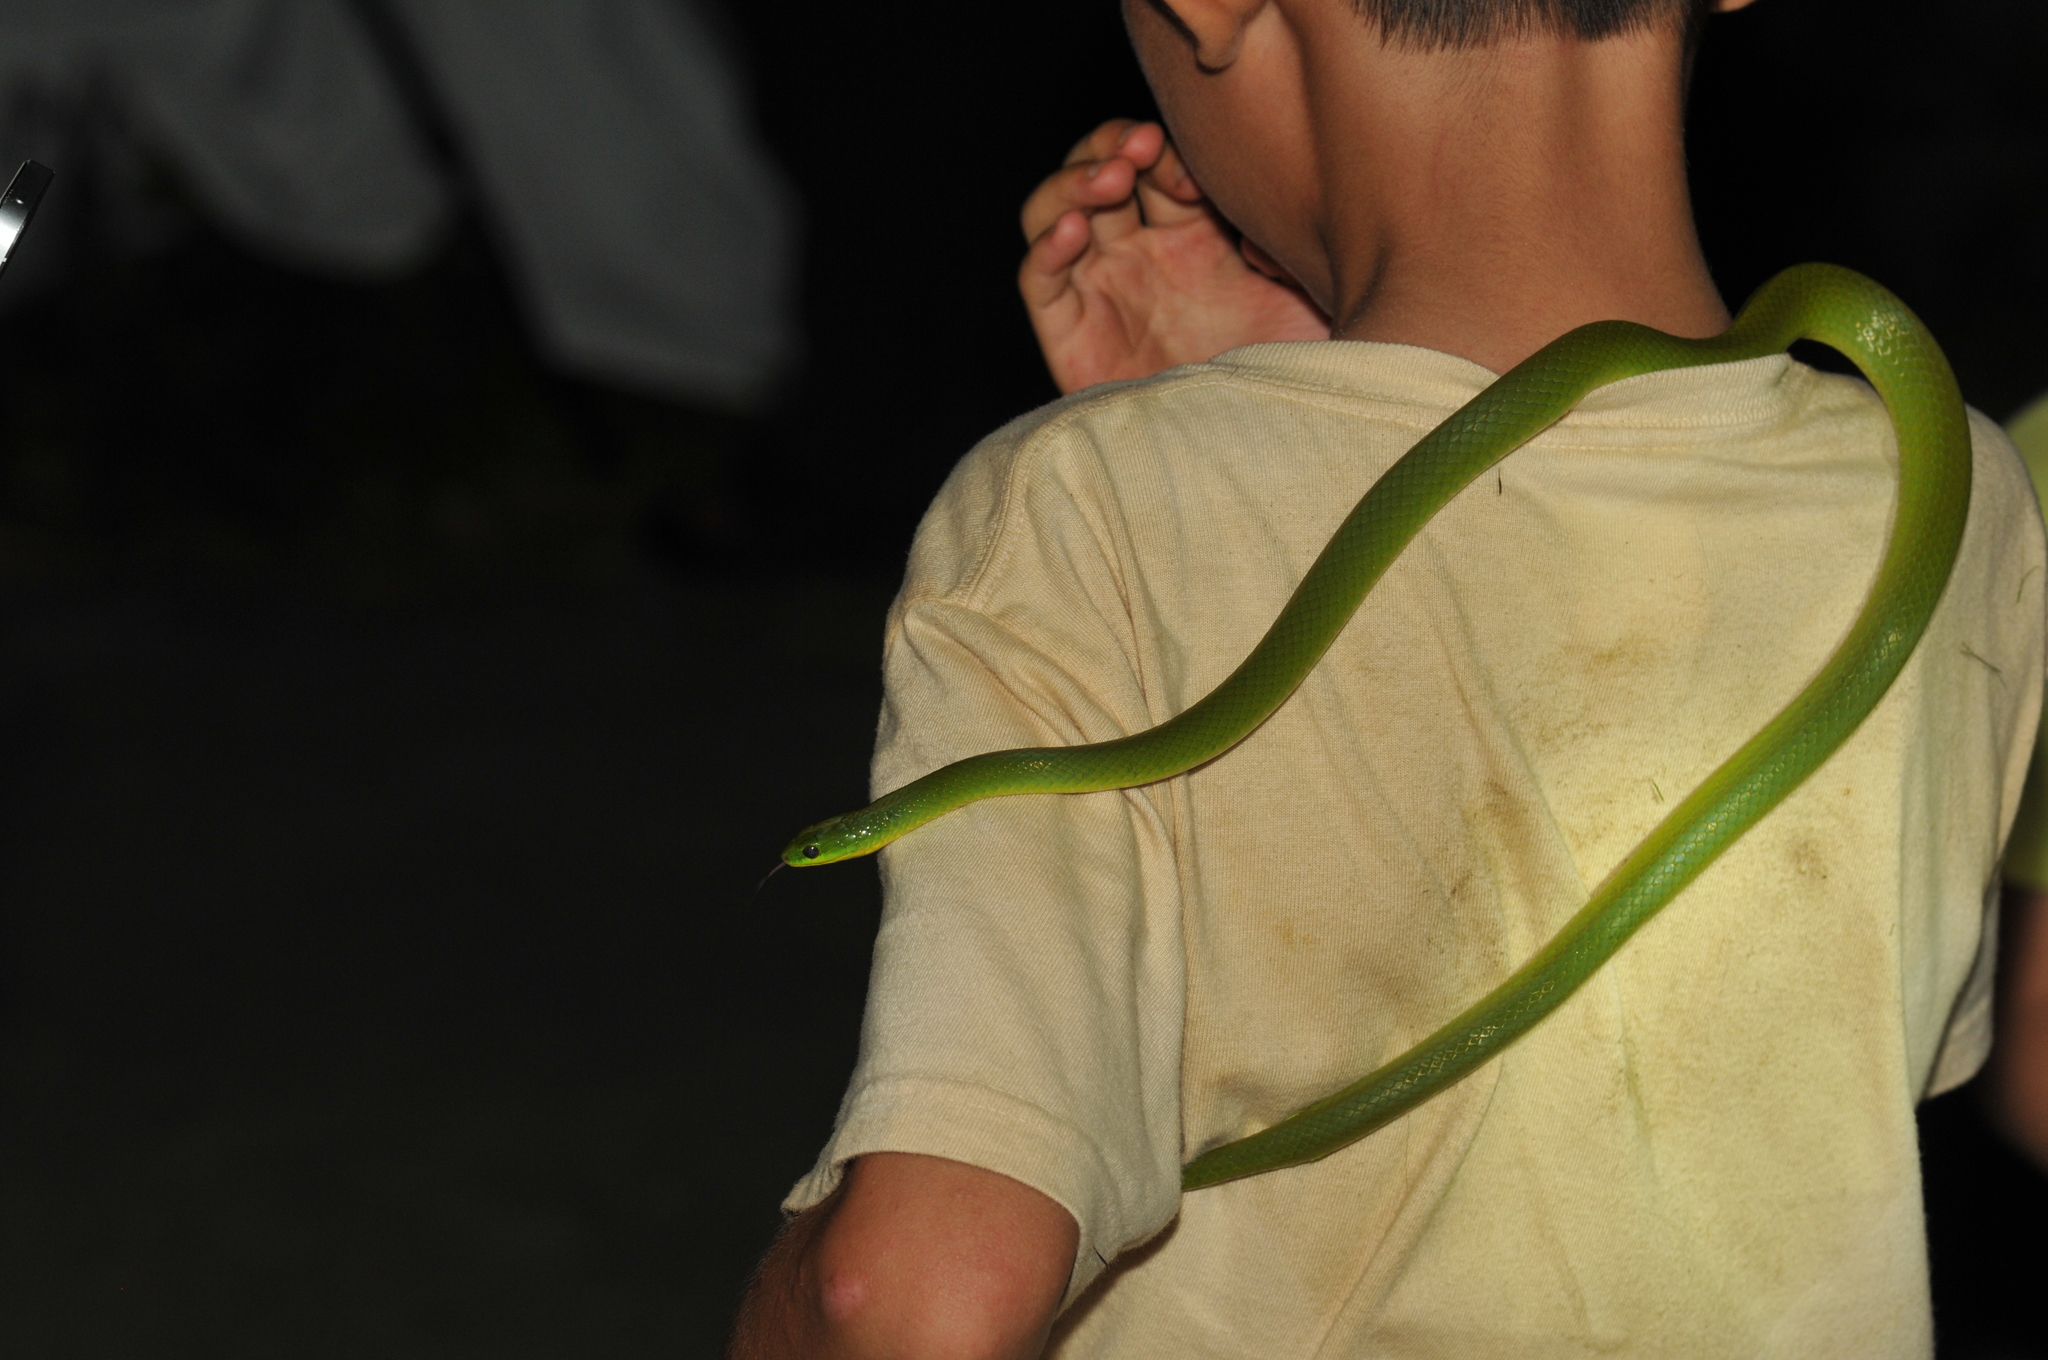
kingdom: Animalia
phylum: Chordata
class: Squamata
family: Colubridae
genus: Ptyas
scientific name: Ptyas major
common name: Chinese green snake
